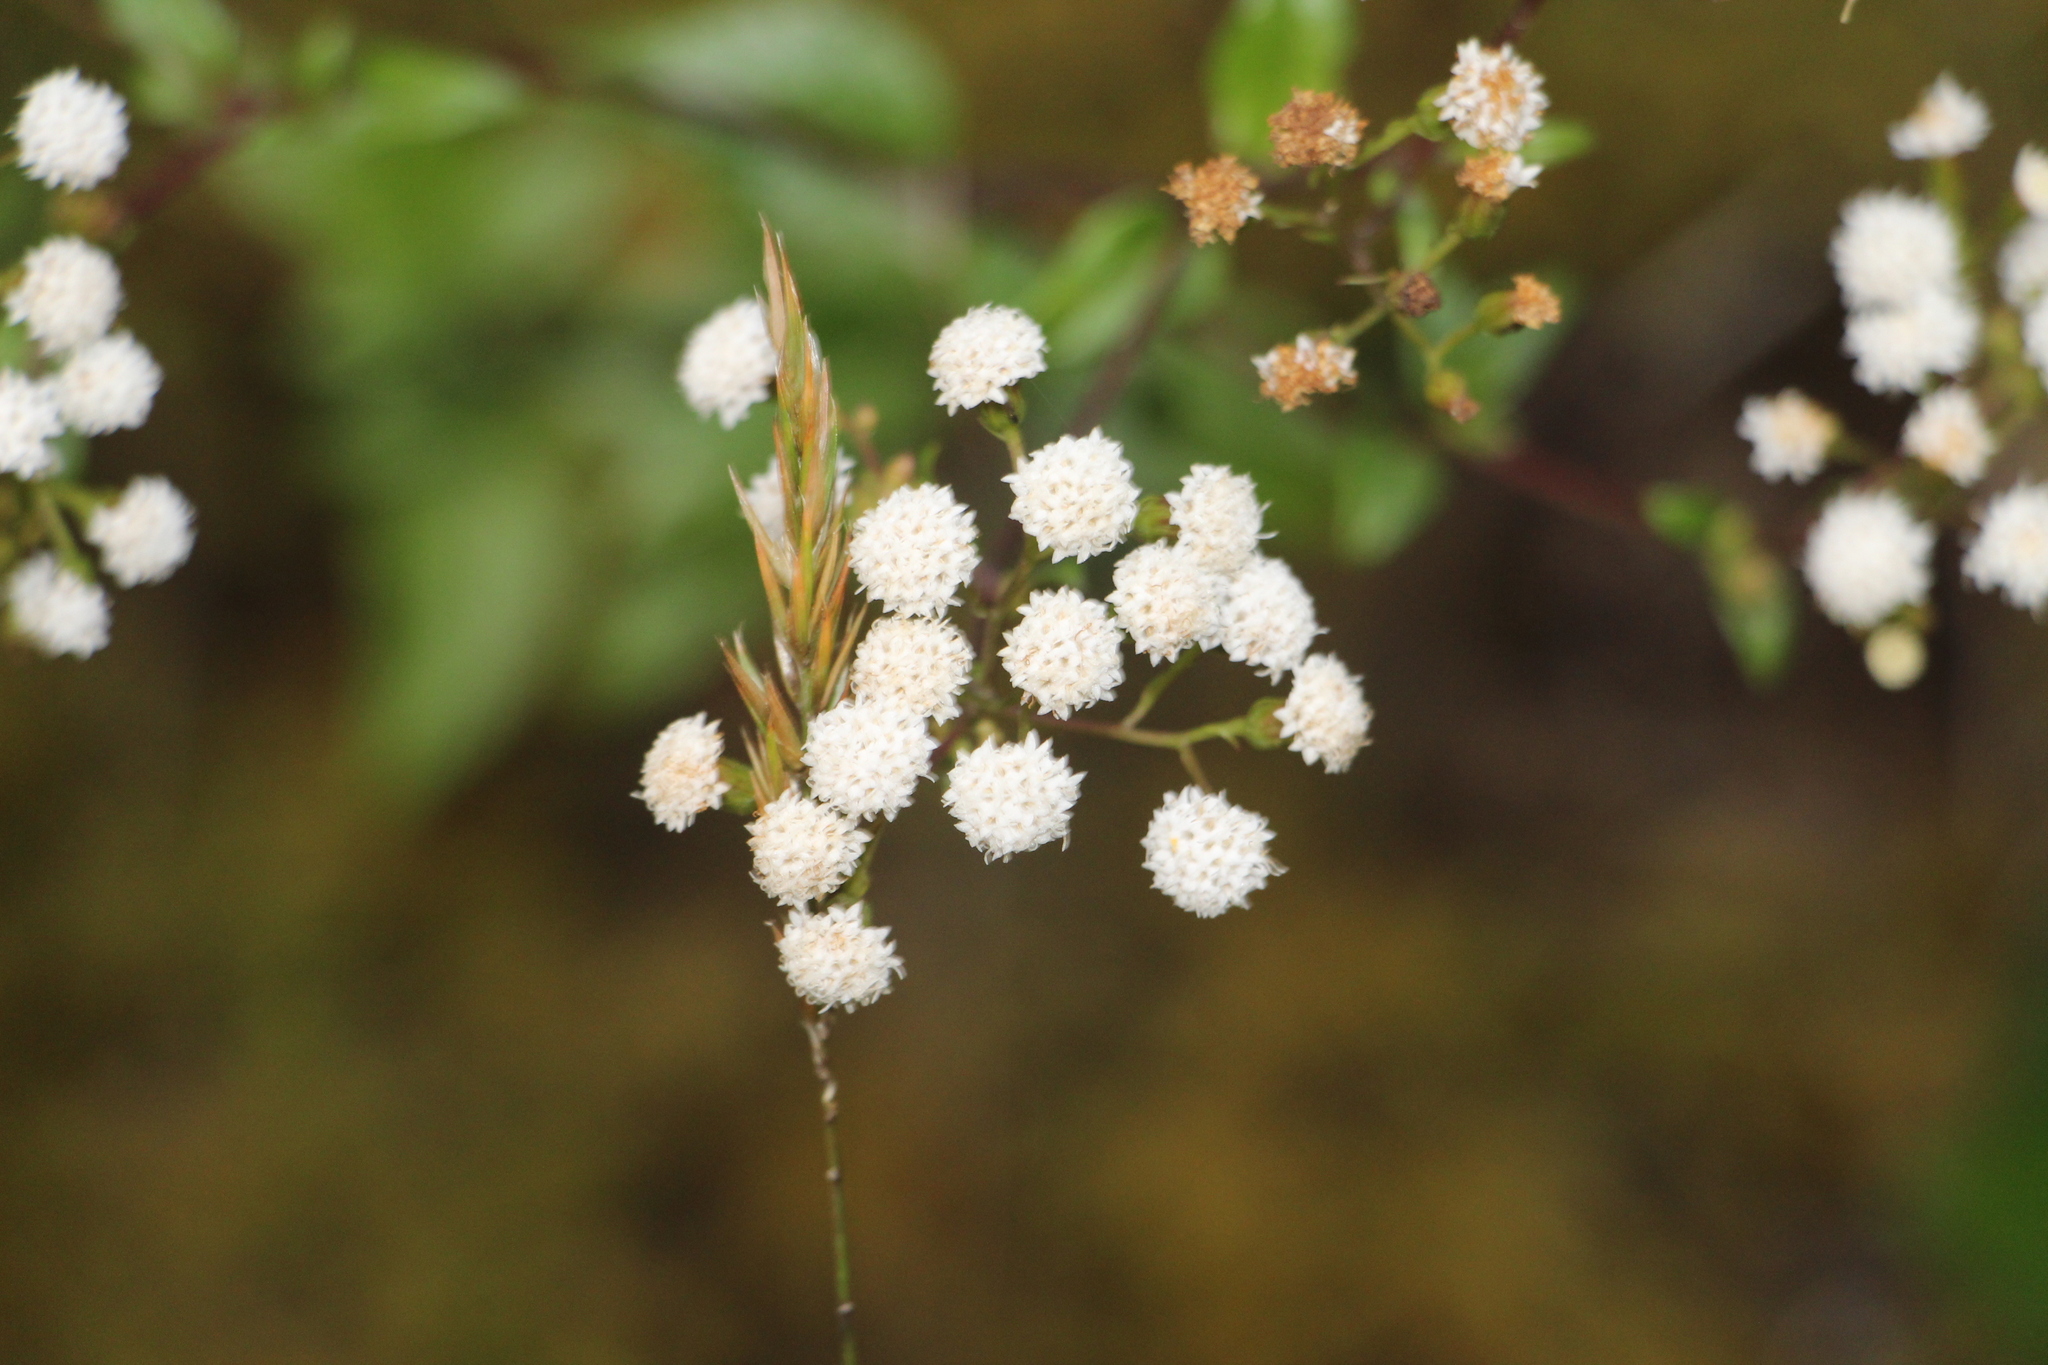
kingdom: Plantae
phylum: Tracheophyta
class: Magnoliopsida
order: Asterales
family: Asteraceae
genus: Ageratina
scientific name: Ageratina gracilis
